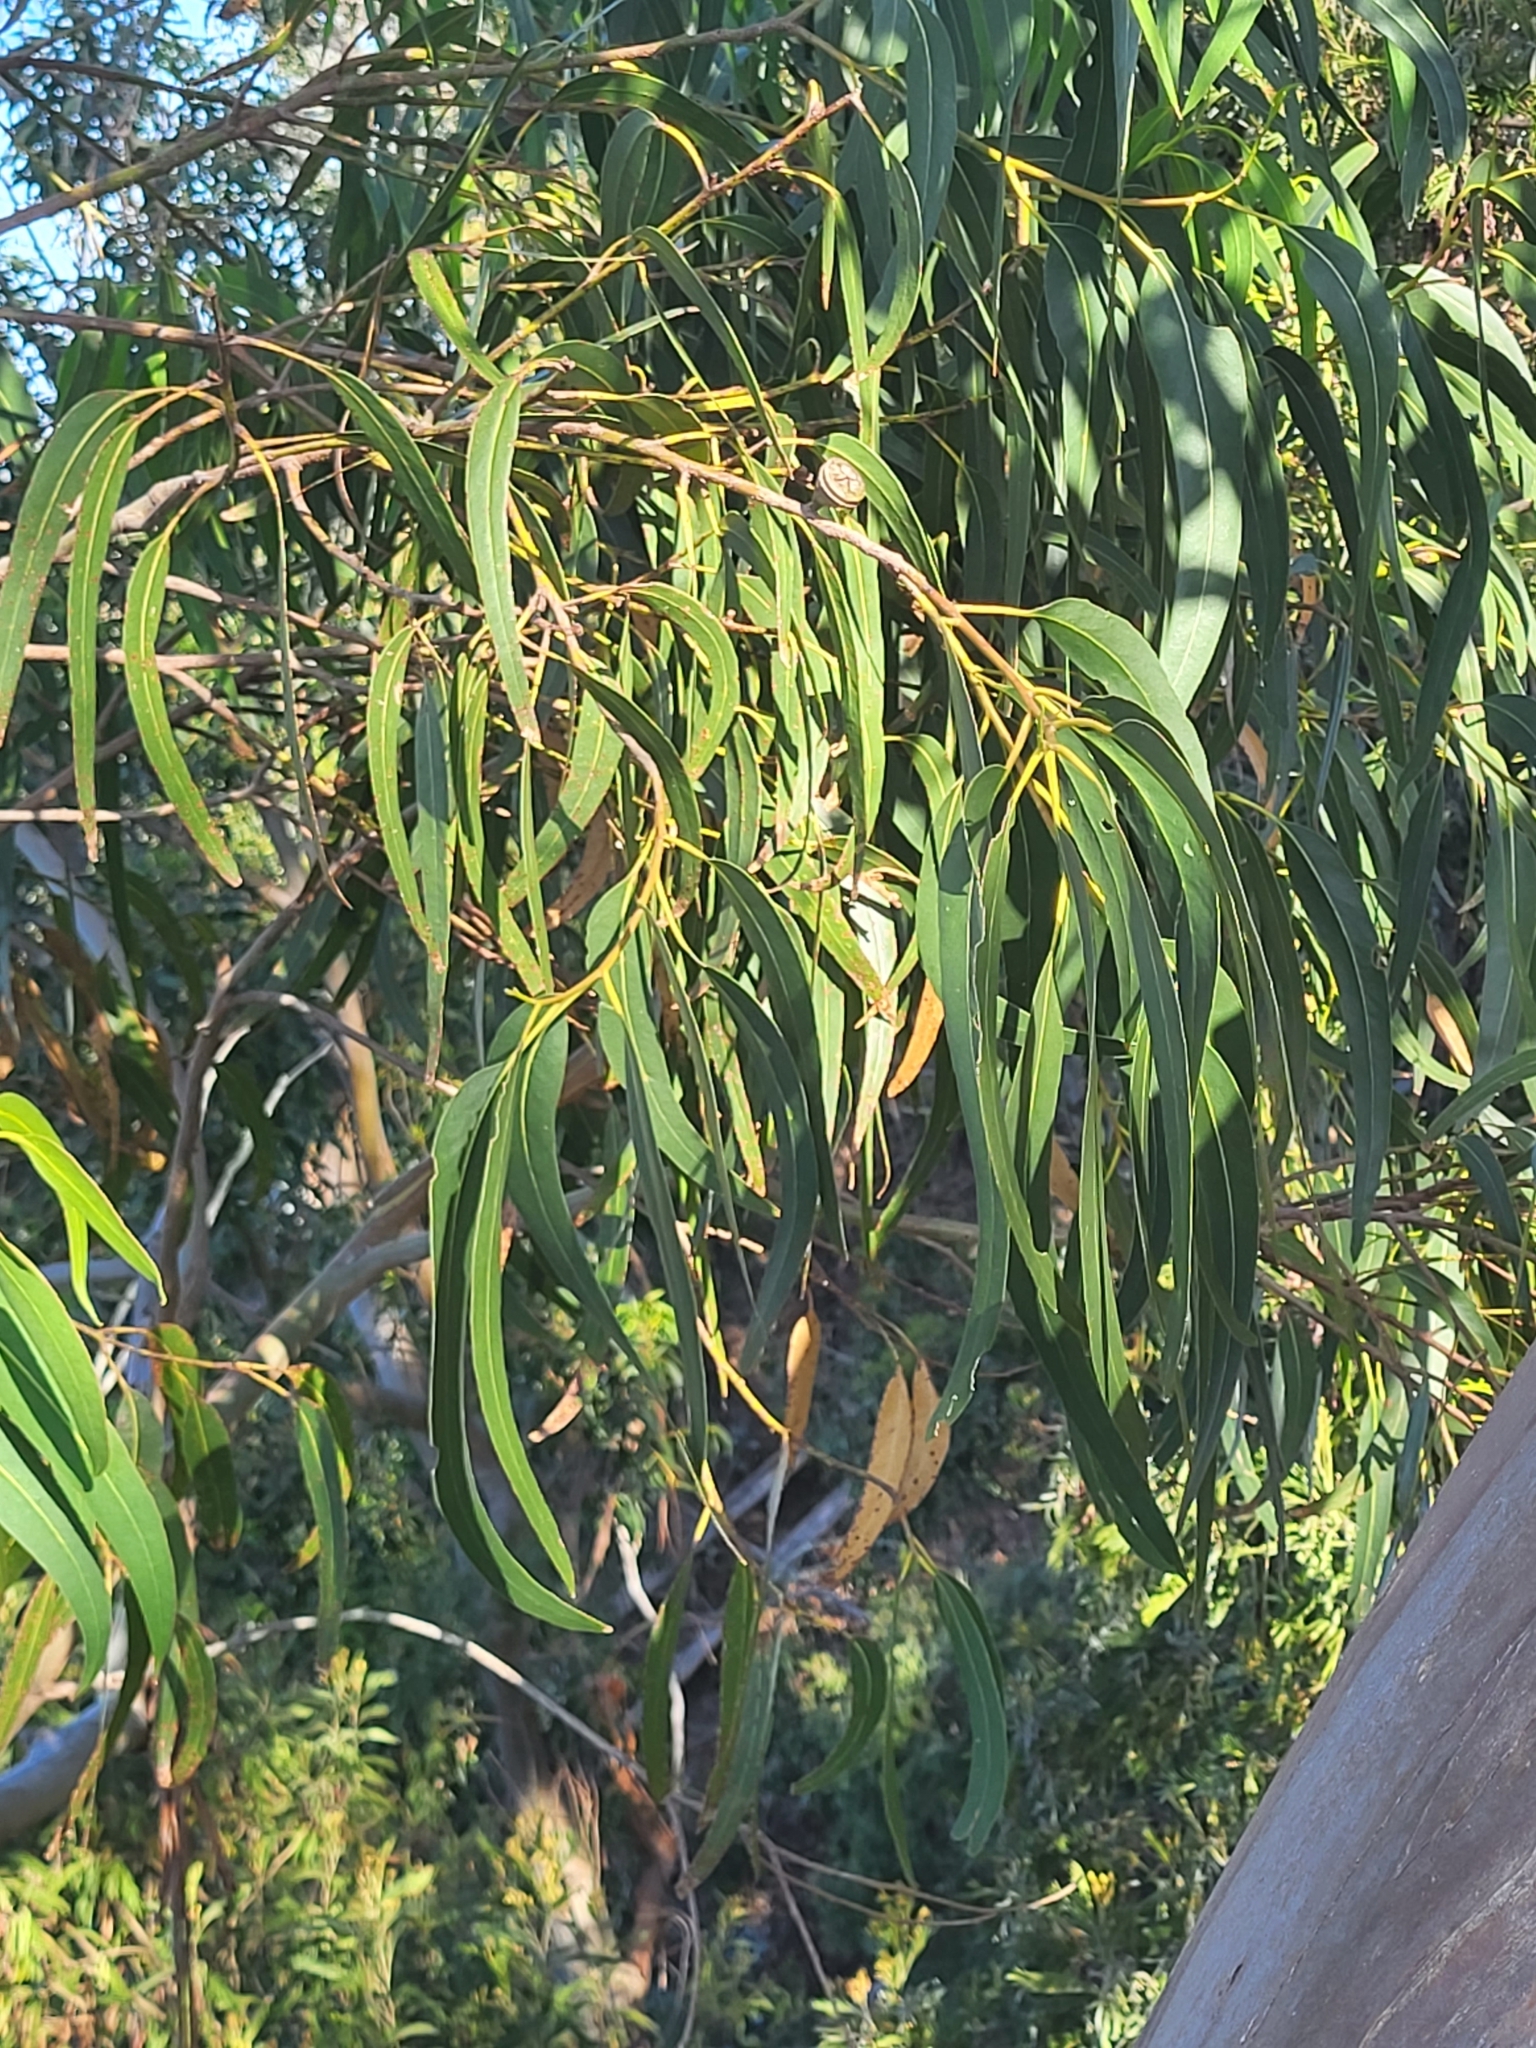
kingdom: Plantae
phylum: Tracheophyta
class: Magnoliopsida
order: Myrtales
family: Myrtaceae
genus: Eucalyptus
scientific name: Eucalyptus globulus
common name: Southern blue-gum
